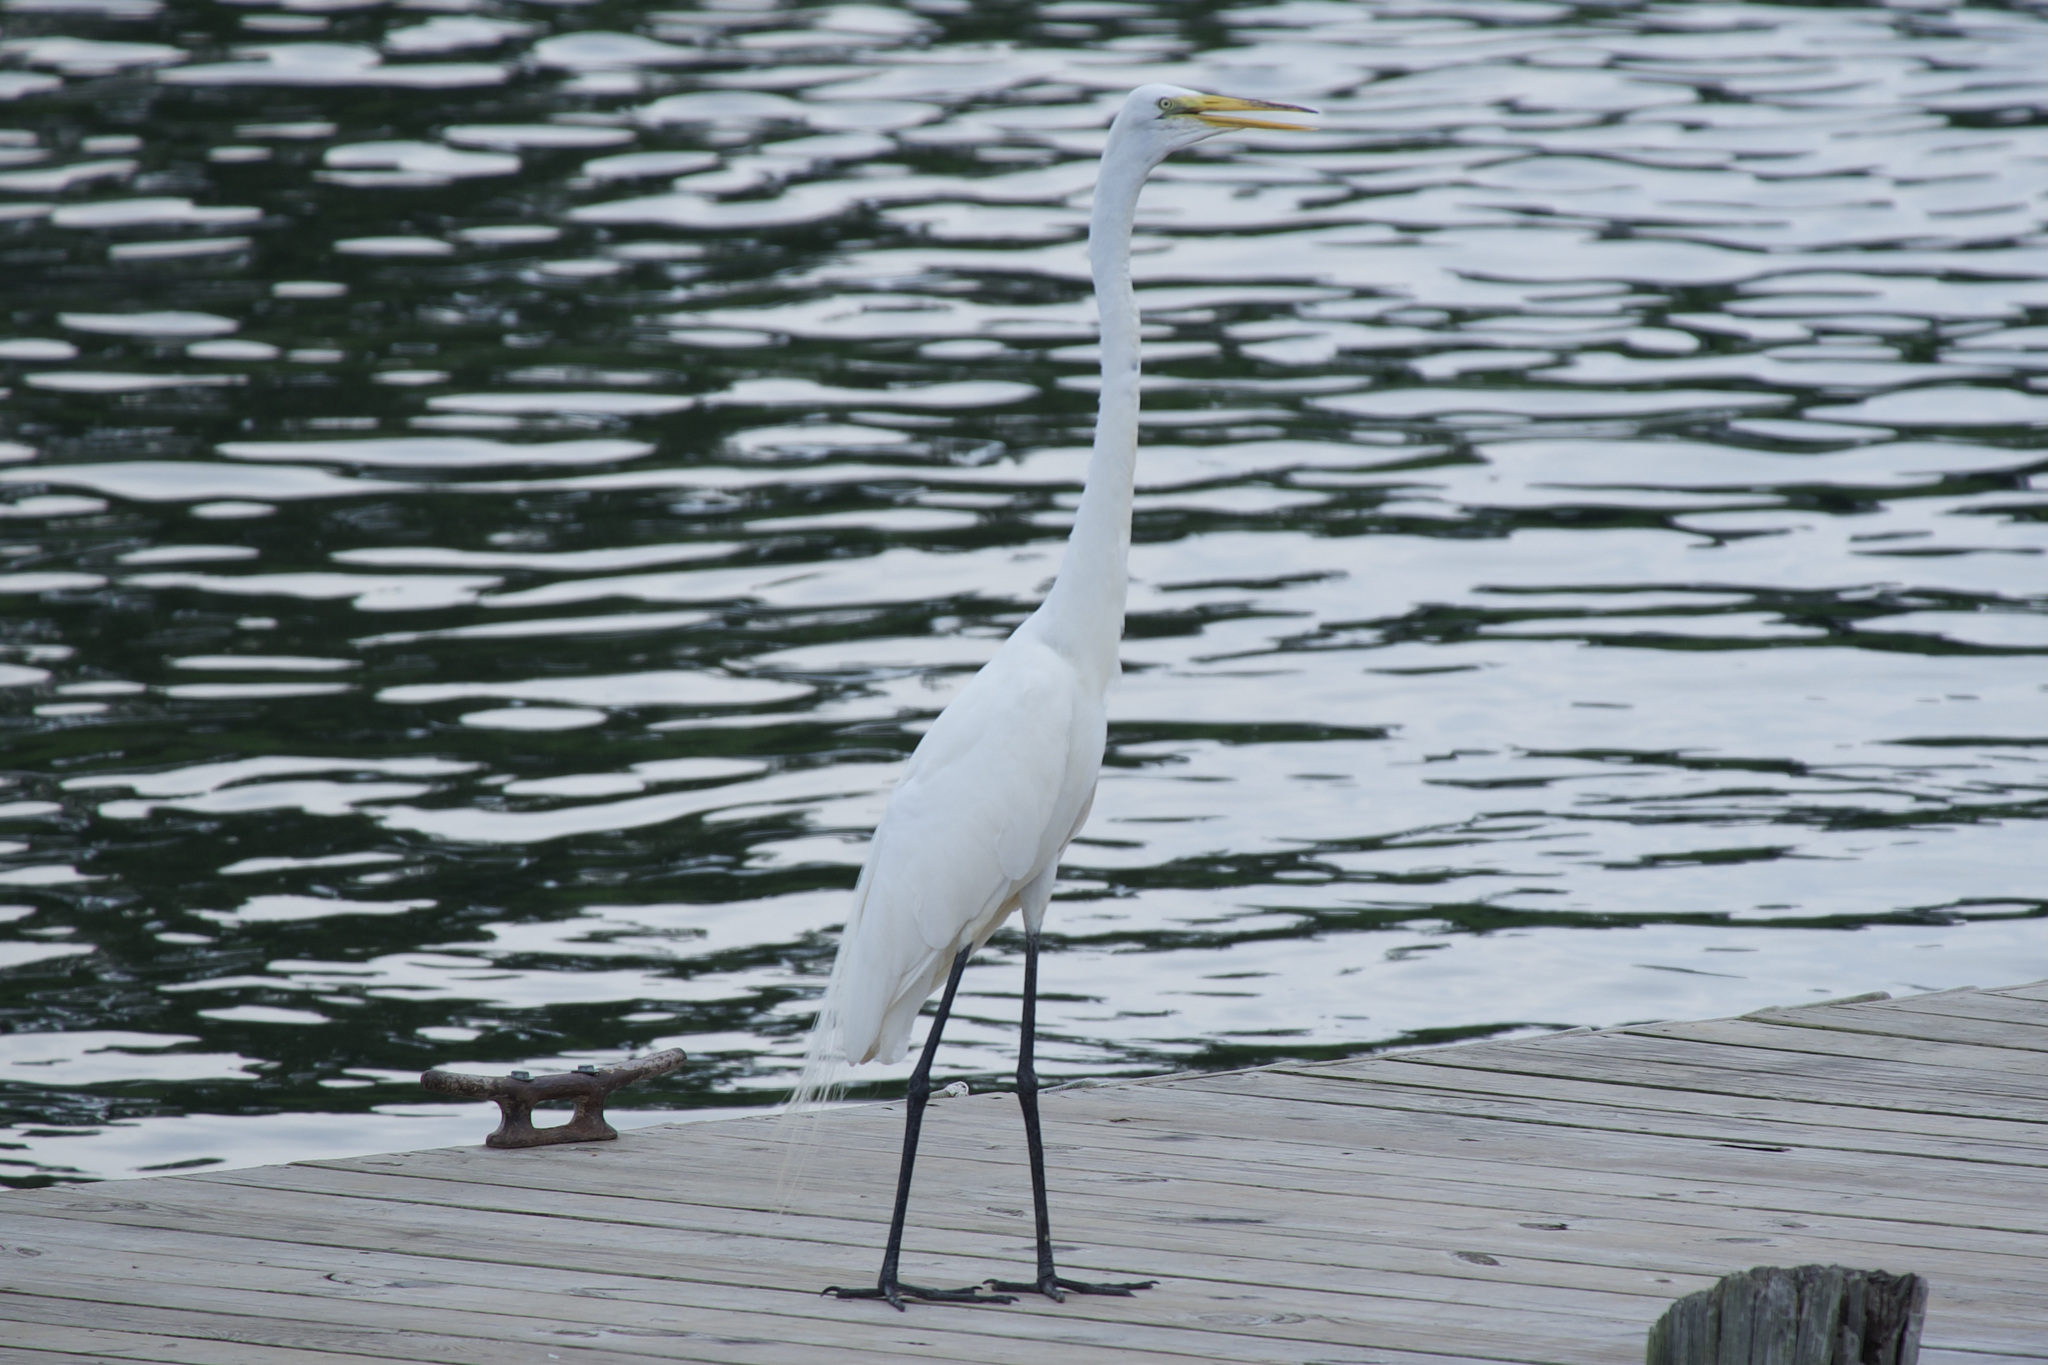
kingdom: Animalia
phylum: Chordata
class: Aves
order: Pelecaniformes
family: Ardeidae
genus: Ardea
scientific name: Ardea alba
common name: Great egret
